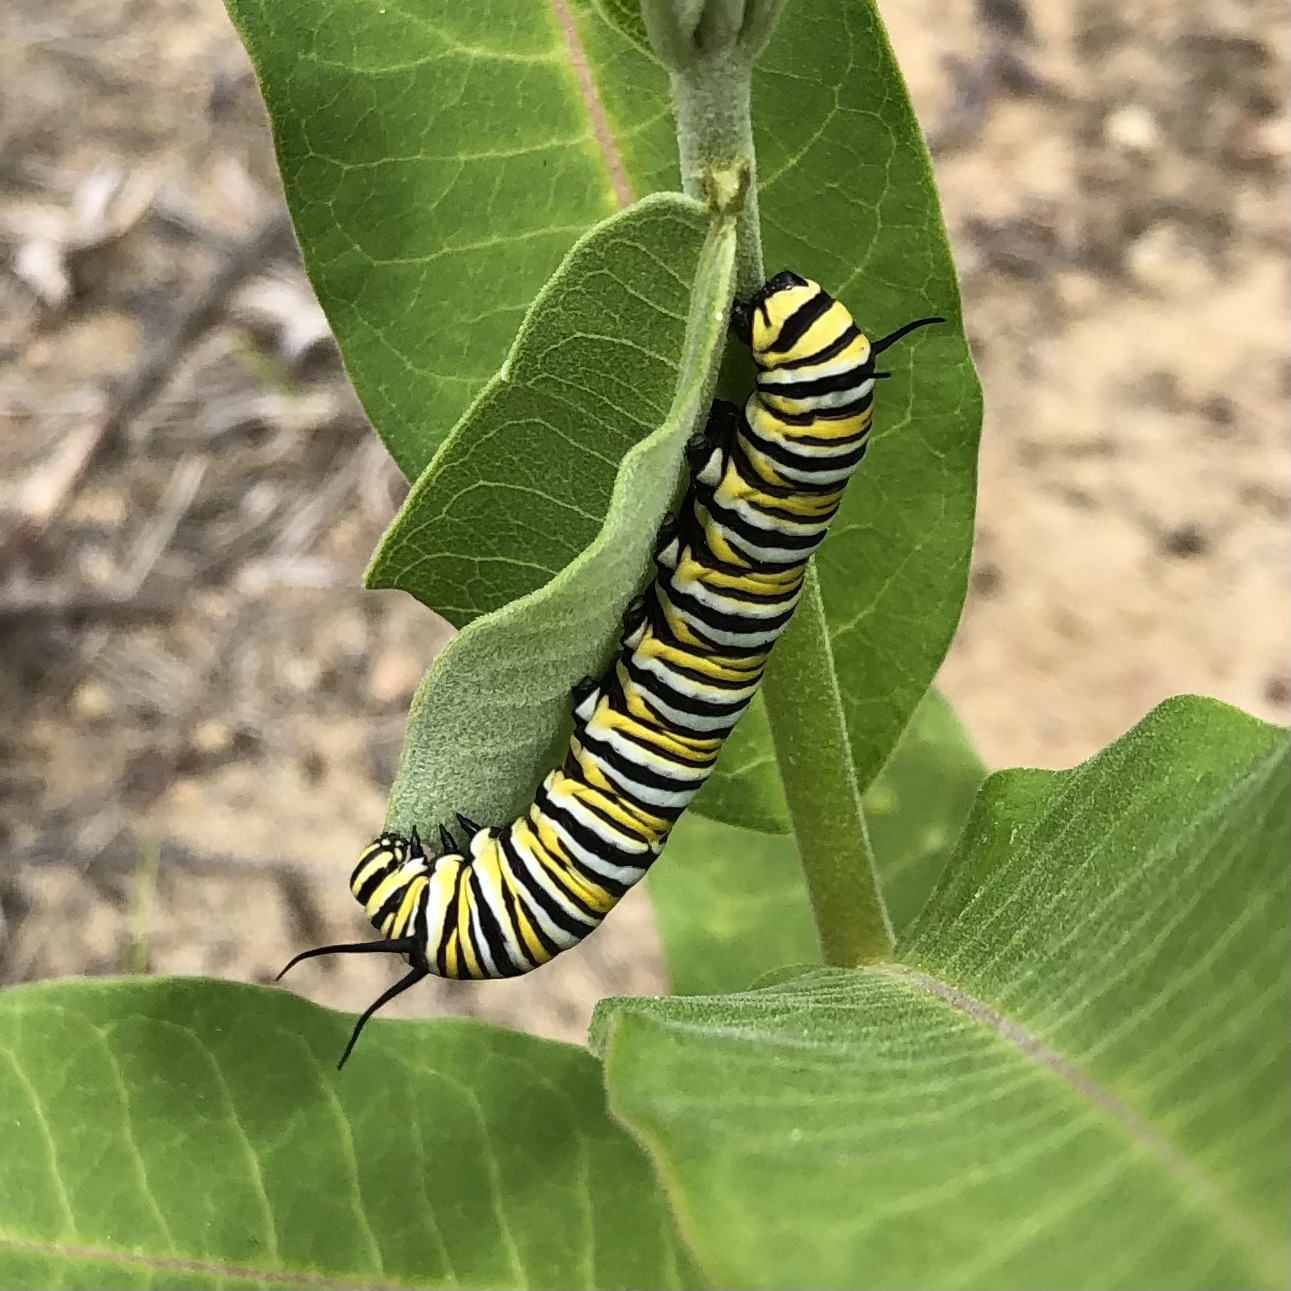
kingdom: Animalia
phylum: Arthropoda
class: Insecta
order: Lepidoptera
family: Nymphalidae
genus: Danaus
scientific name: Danaus plexippus
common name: Monarch
